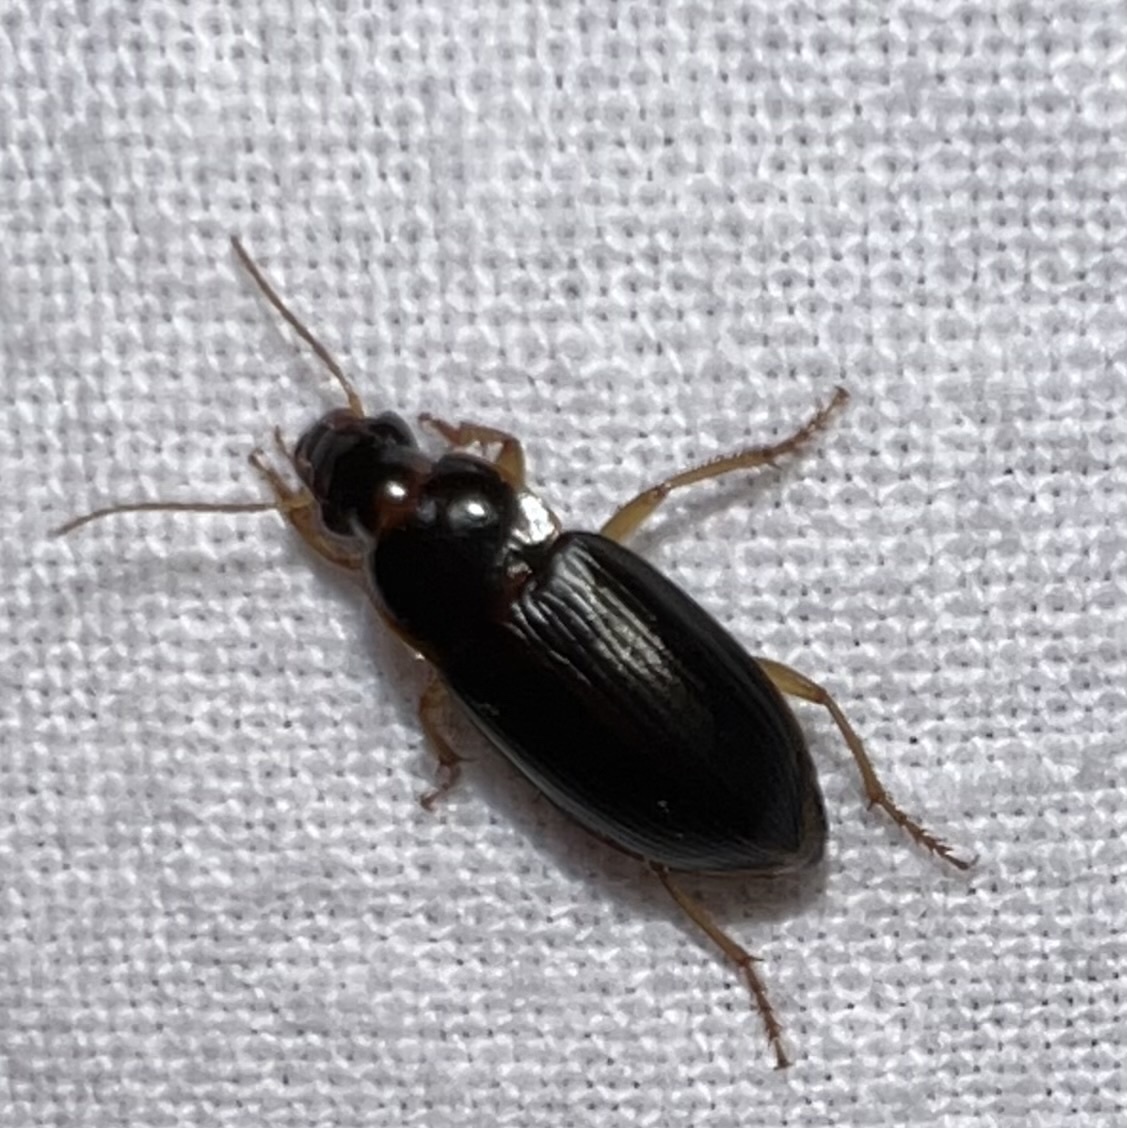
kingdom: Animalia
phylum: Arthropoda
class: Insecta
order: Coleoptera
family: Carabidae
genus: Notiobia
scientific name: Notiobia terminata
